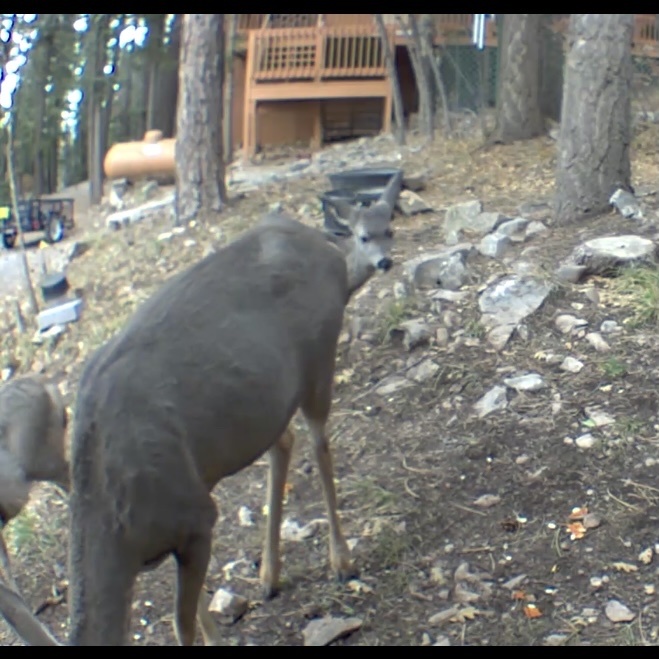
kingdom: Animalia
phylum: Chordata
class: Mammalia
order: Artiodactyla
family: Cervidae
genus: Odocoileus
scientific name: Odocoileus hemionus
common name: Mule deer
